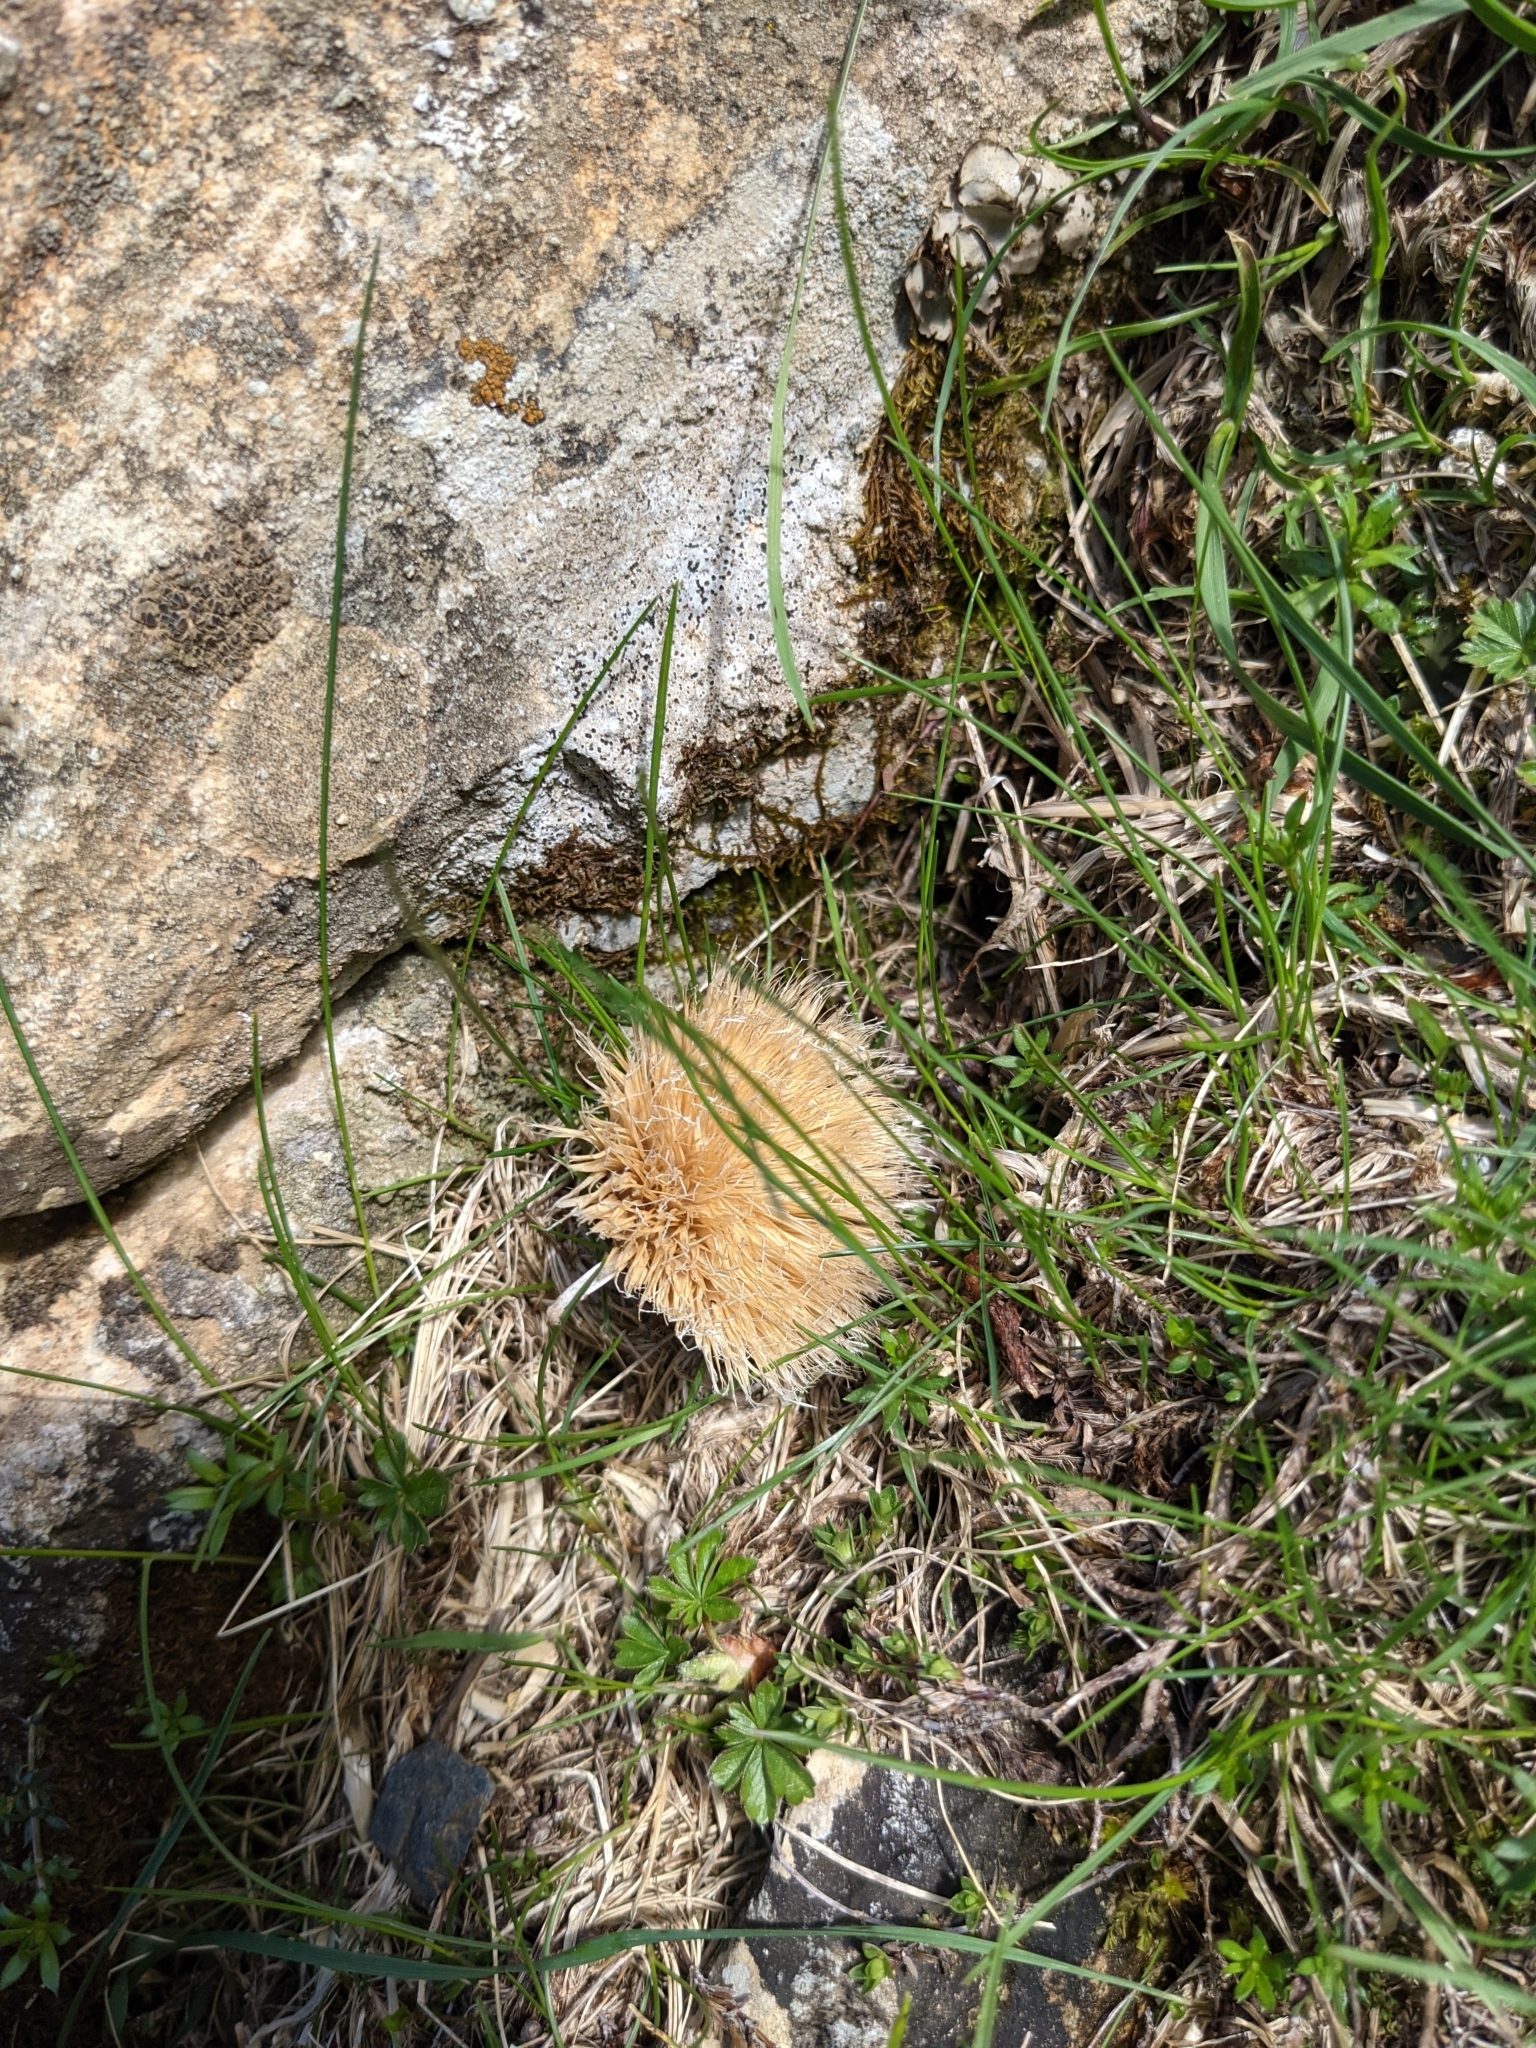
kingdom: Plantae
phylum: Tracheophyta
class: Magnoliopsida
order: Asterales
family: Asteraceae
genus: Carlina
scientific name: Carlina acaulis
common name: Stemless carline thistle
